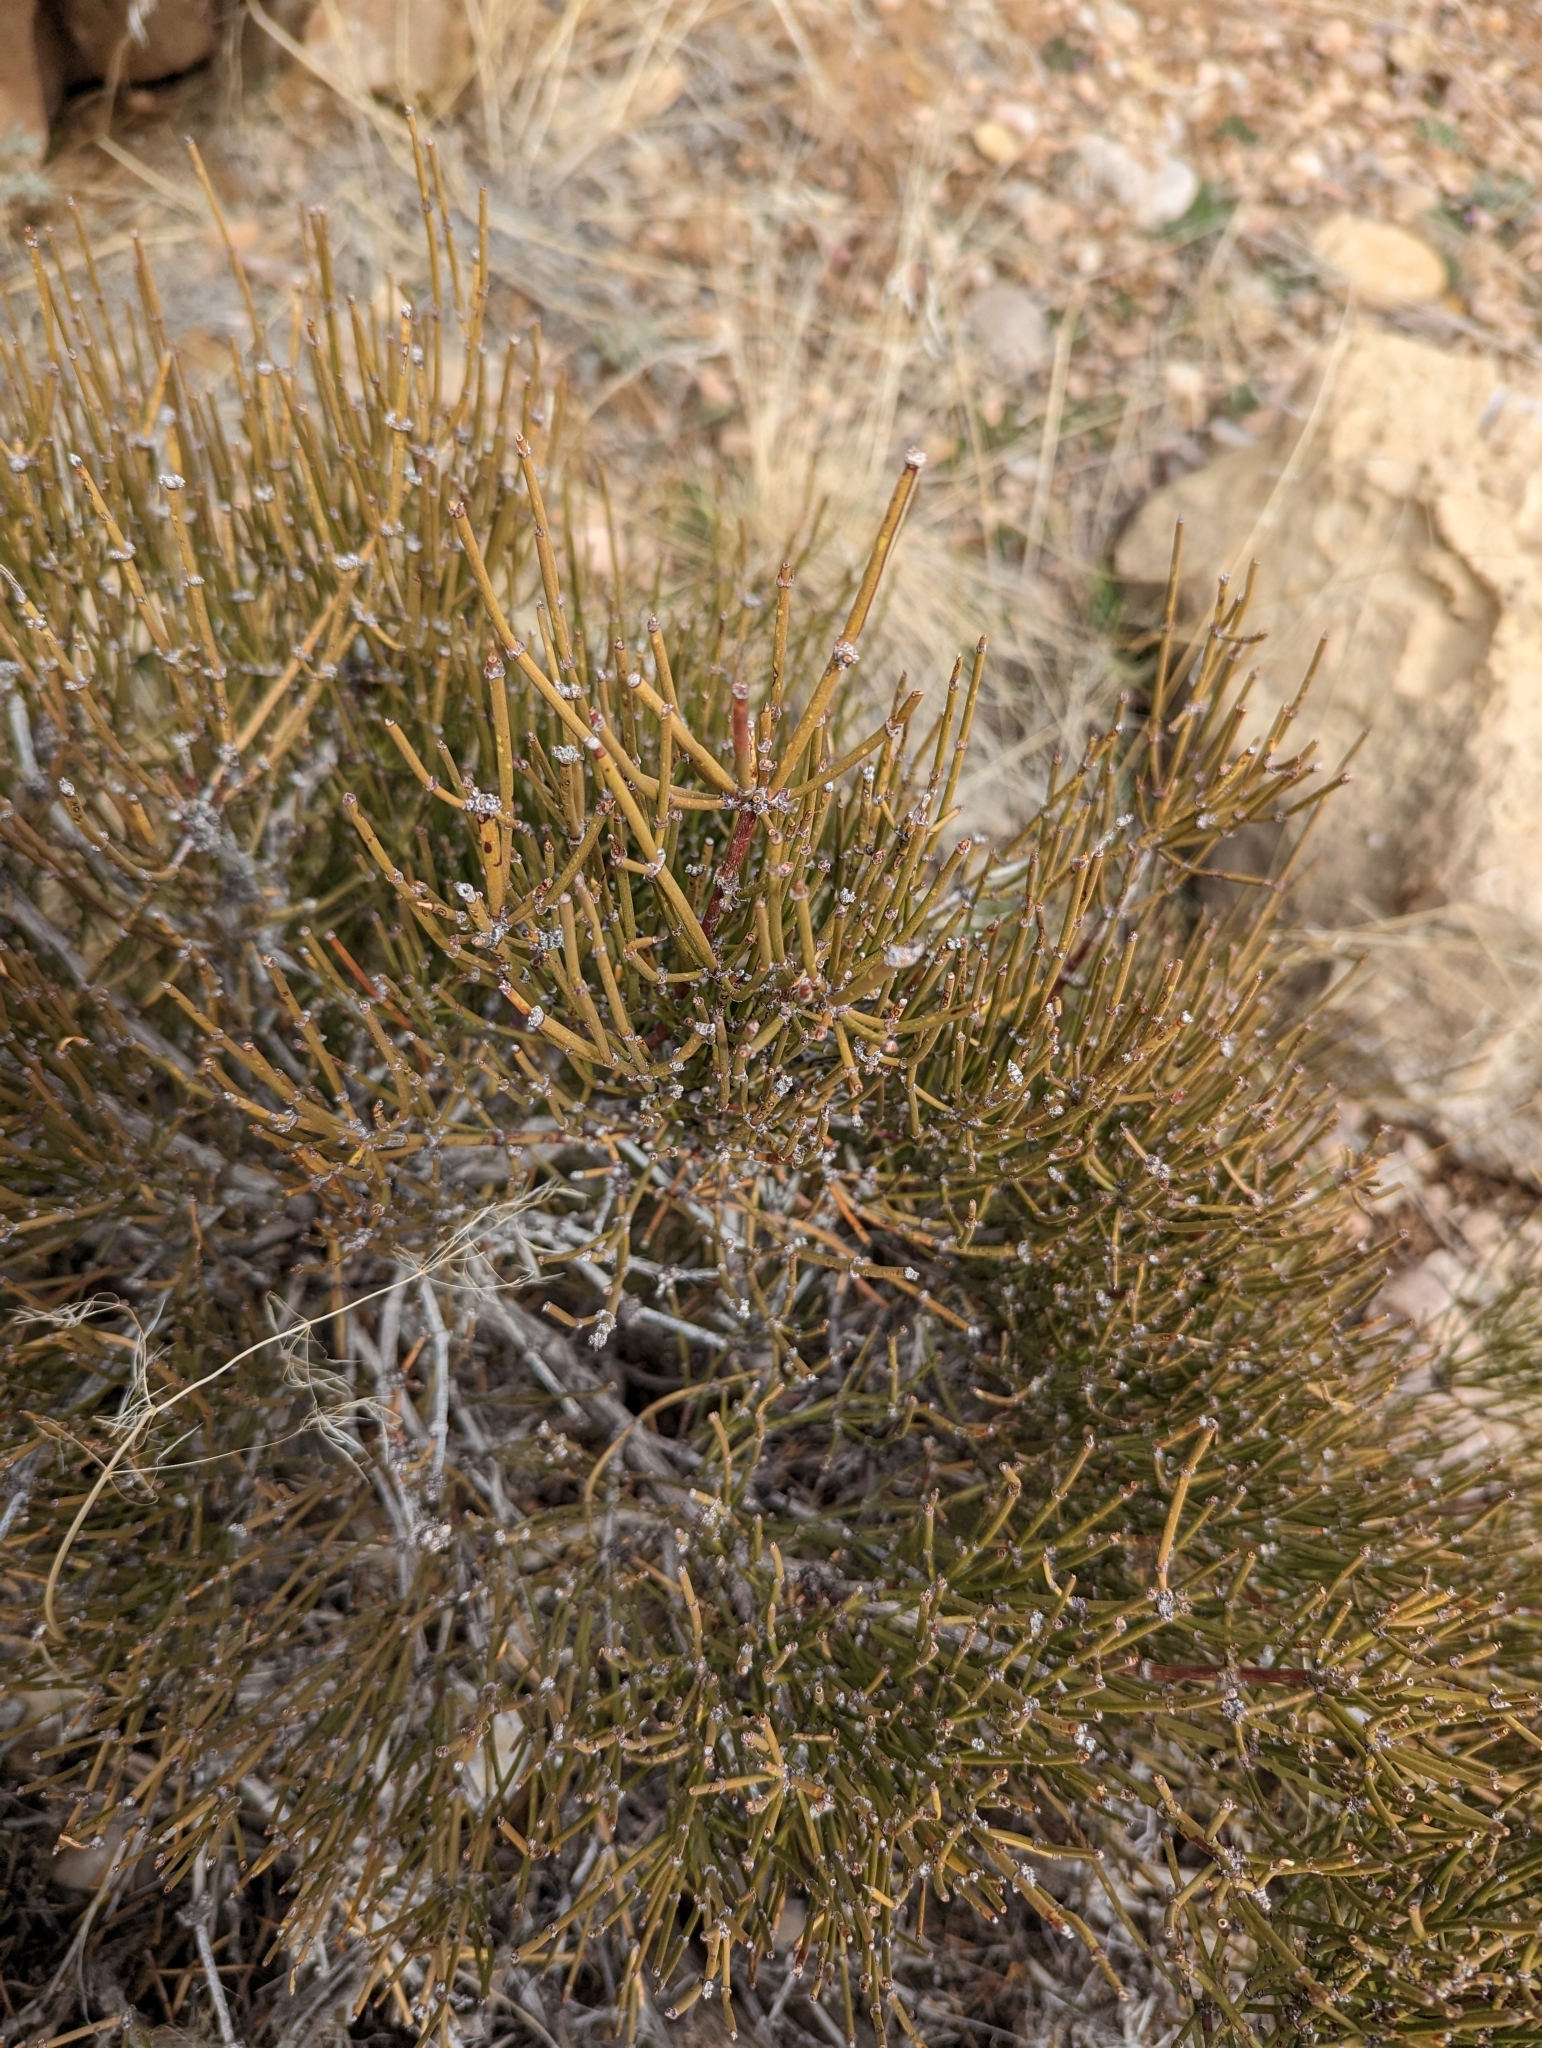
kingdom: Plantae
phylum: Tracheophyta
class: Gnetopsida
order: Ephedrales
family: Ephedraceae
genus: Ephedra
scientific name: Ephedra viridis
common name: Green ephedra
